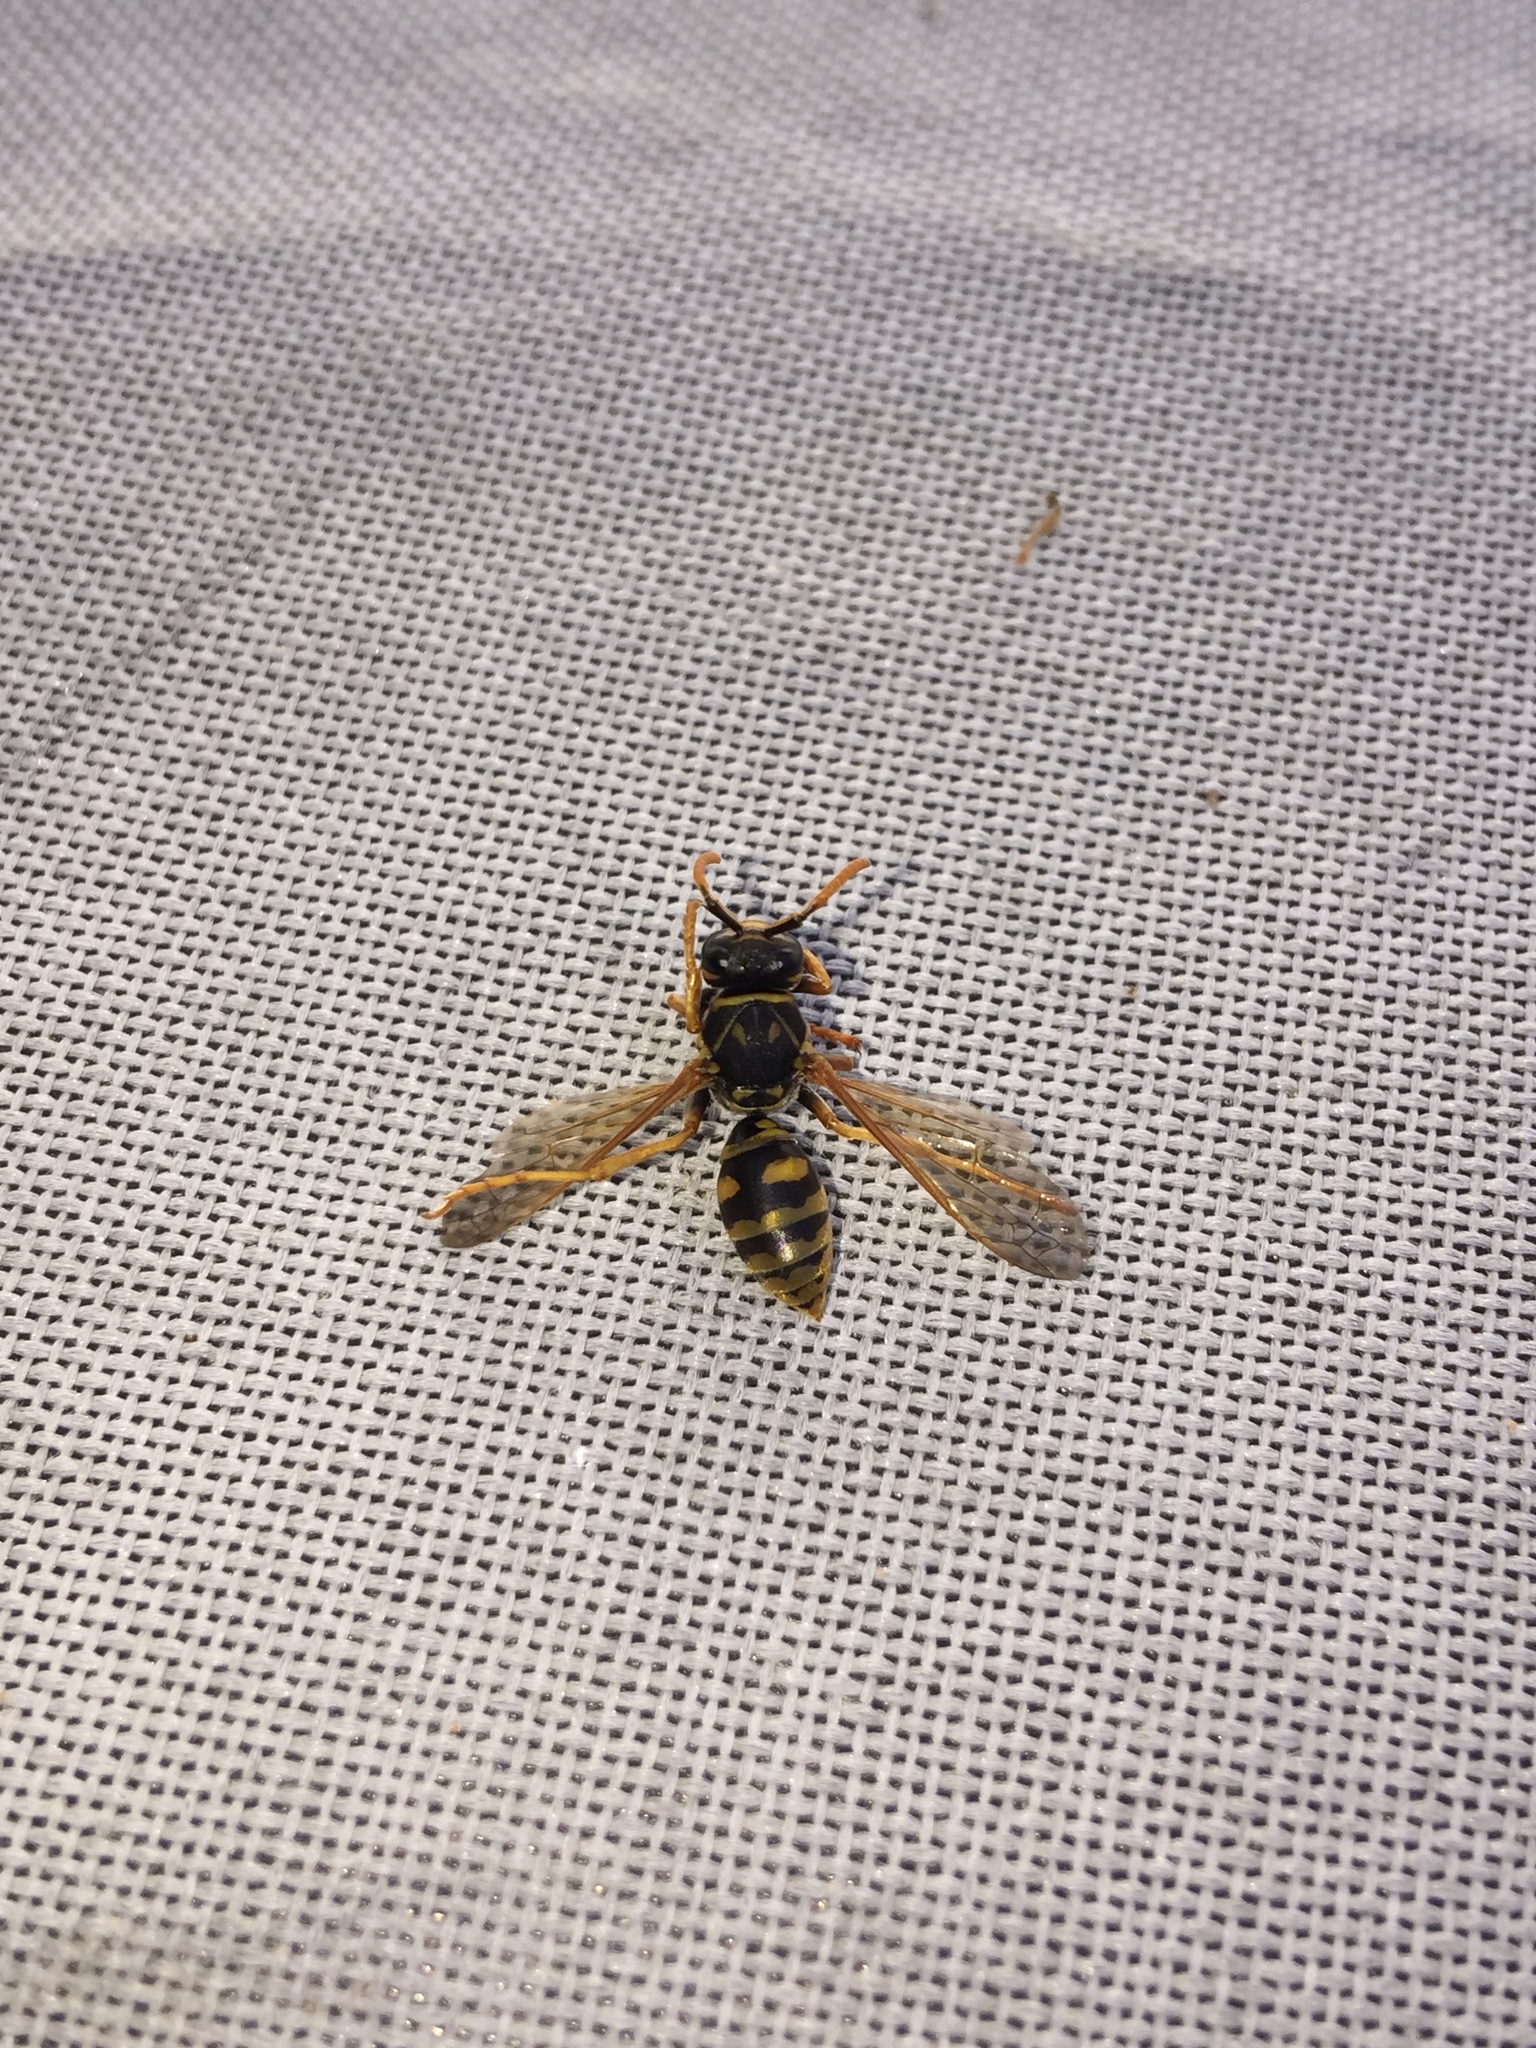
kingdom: Animalia
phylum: Arthropoda
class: Insecta
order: Hymenoptera
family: Eumenidae
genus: Polistes
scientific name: Polistes dominula
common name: Paper wasp
